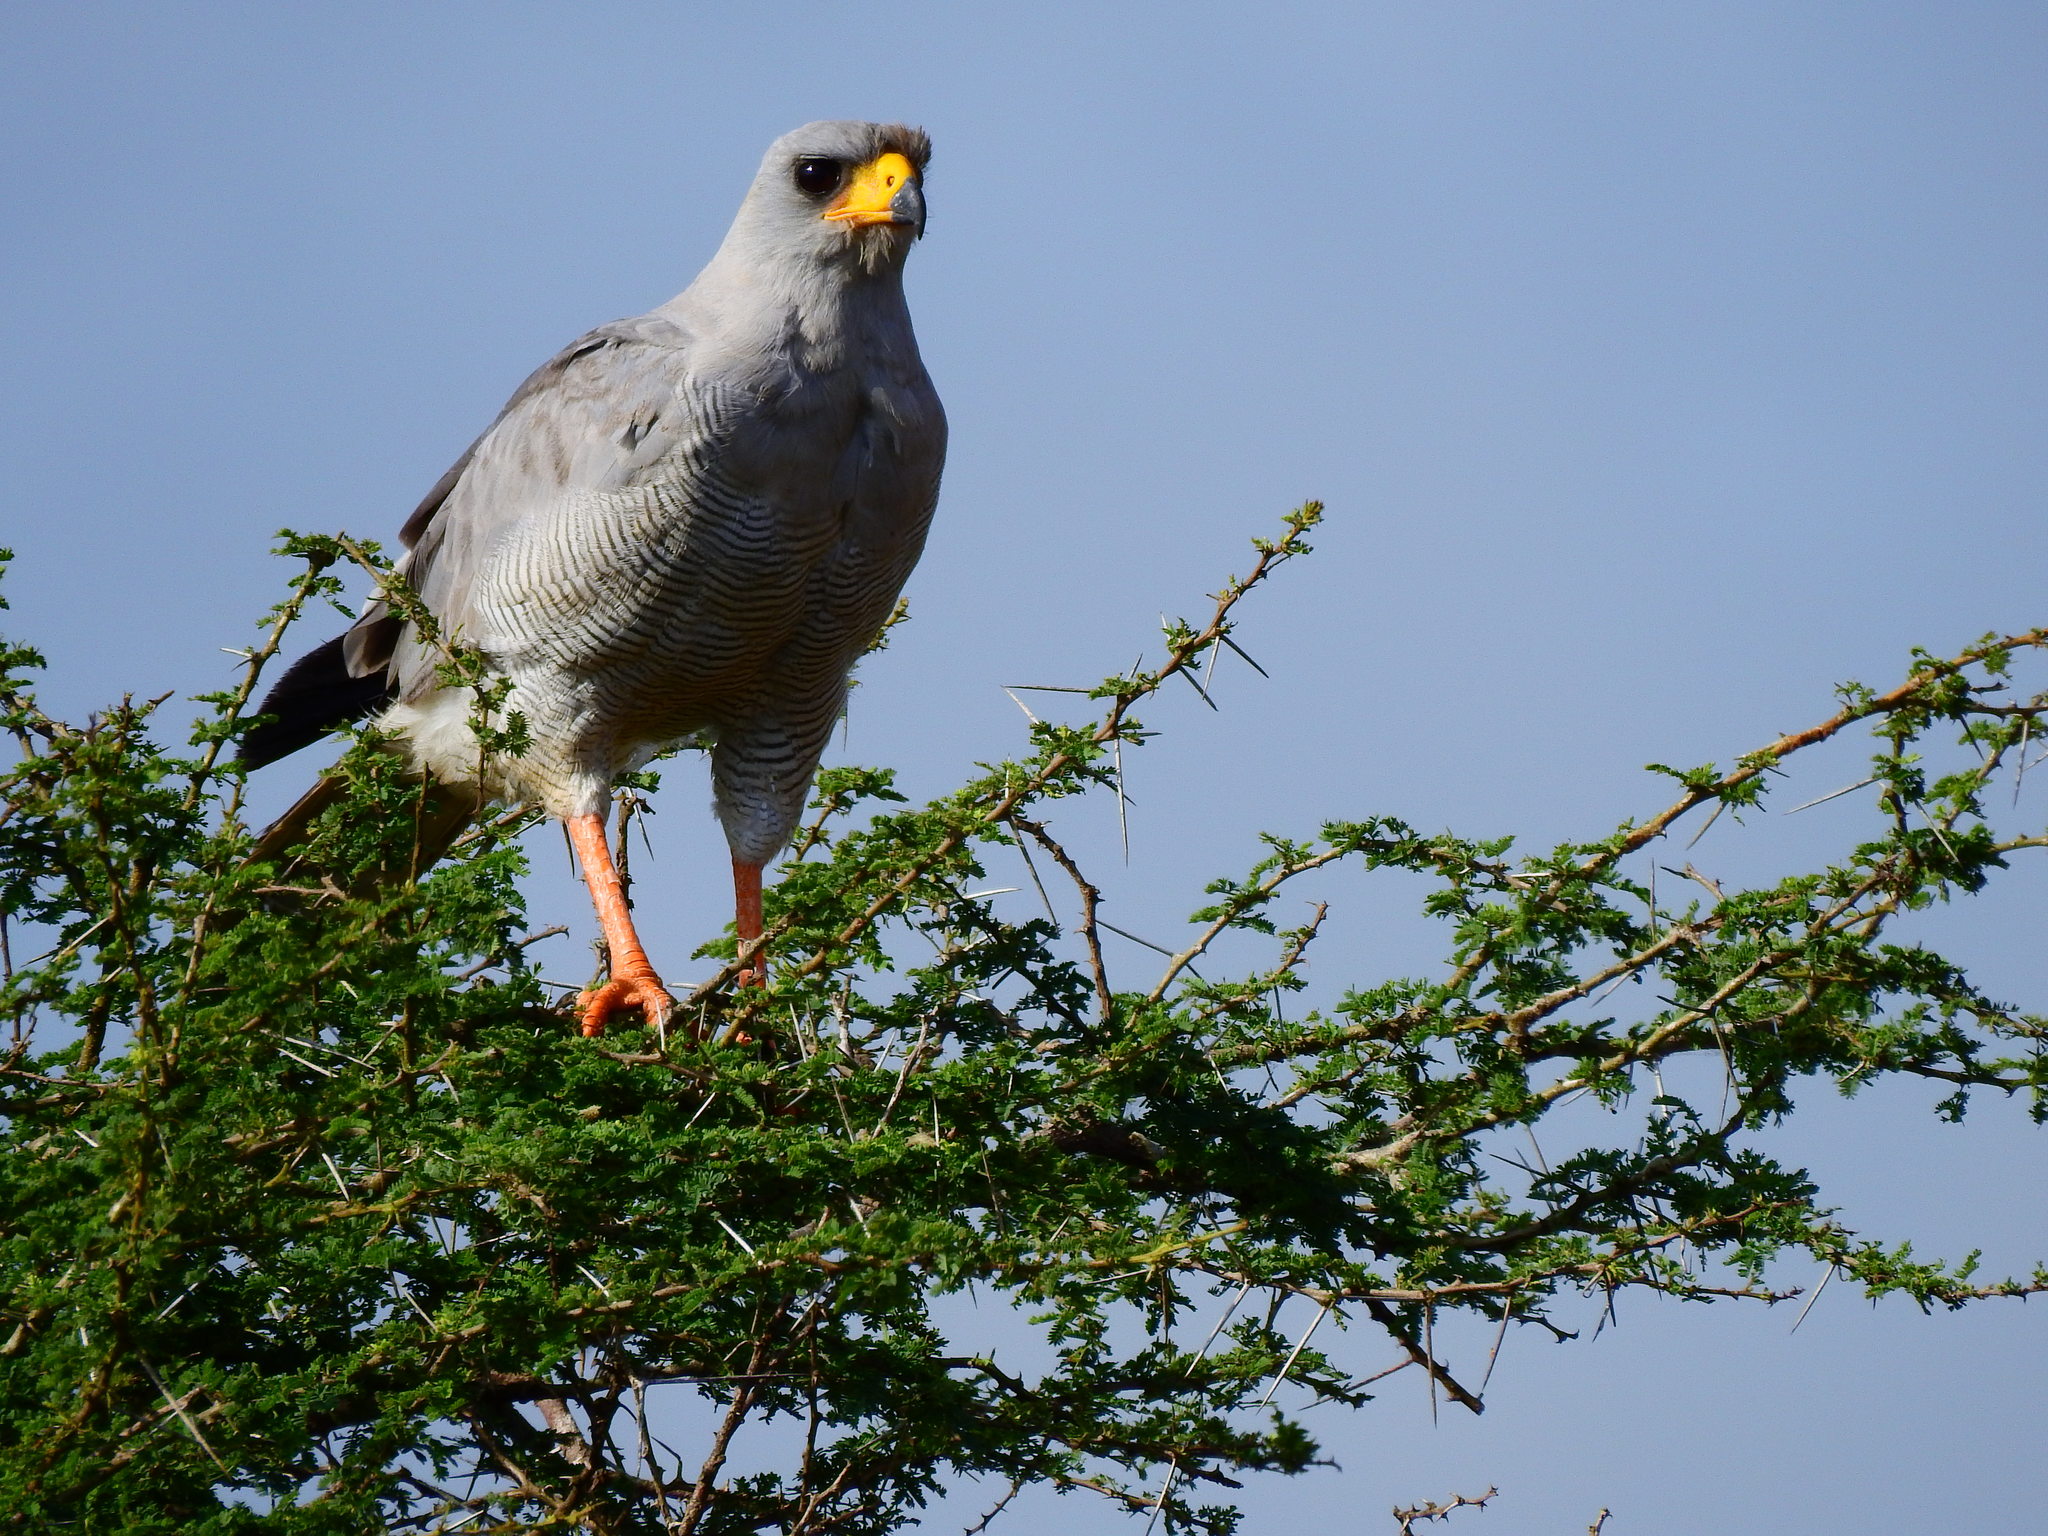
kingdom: Animalia
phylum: Chordata
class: Aves
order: Accipitriformes
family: Accipitridae
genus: Melierax
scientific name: Melierax poliopterus
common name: Eastern chanting goshawk
